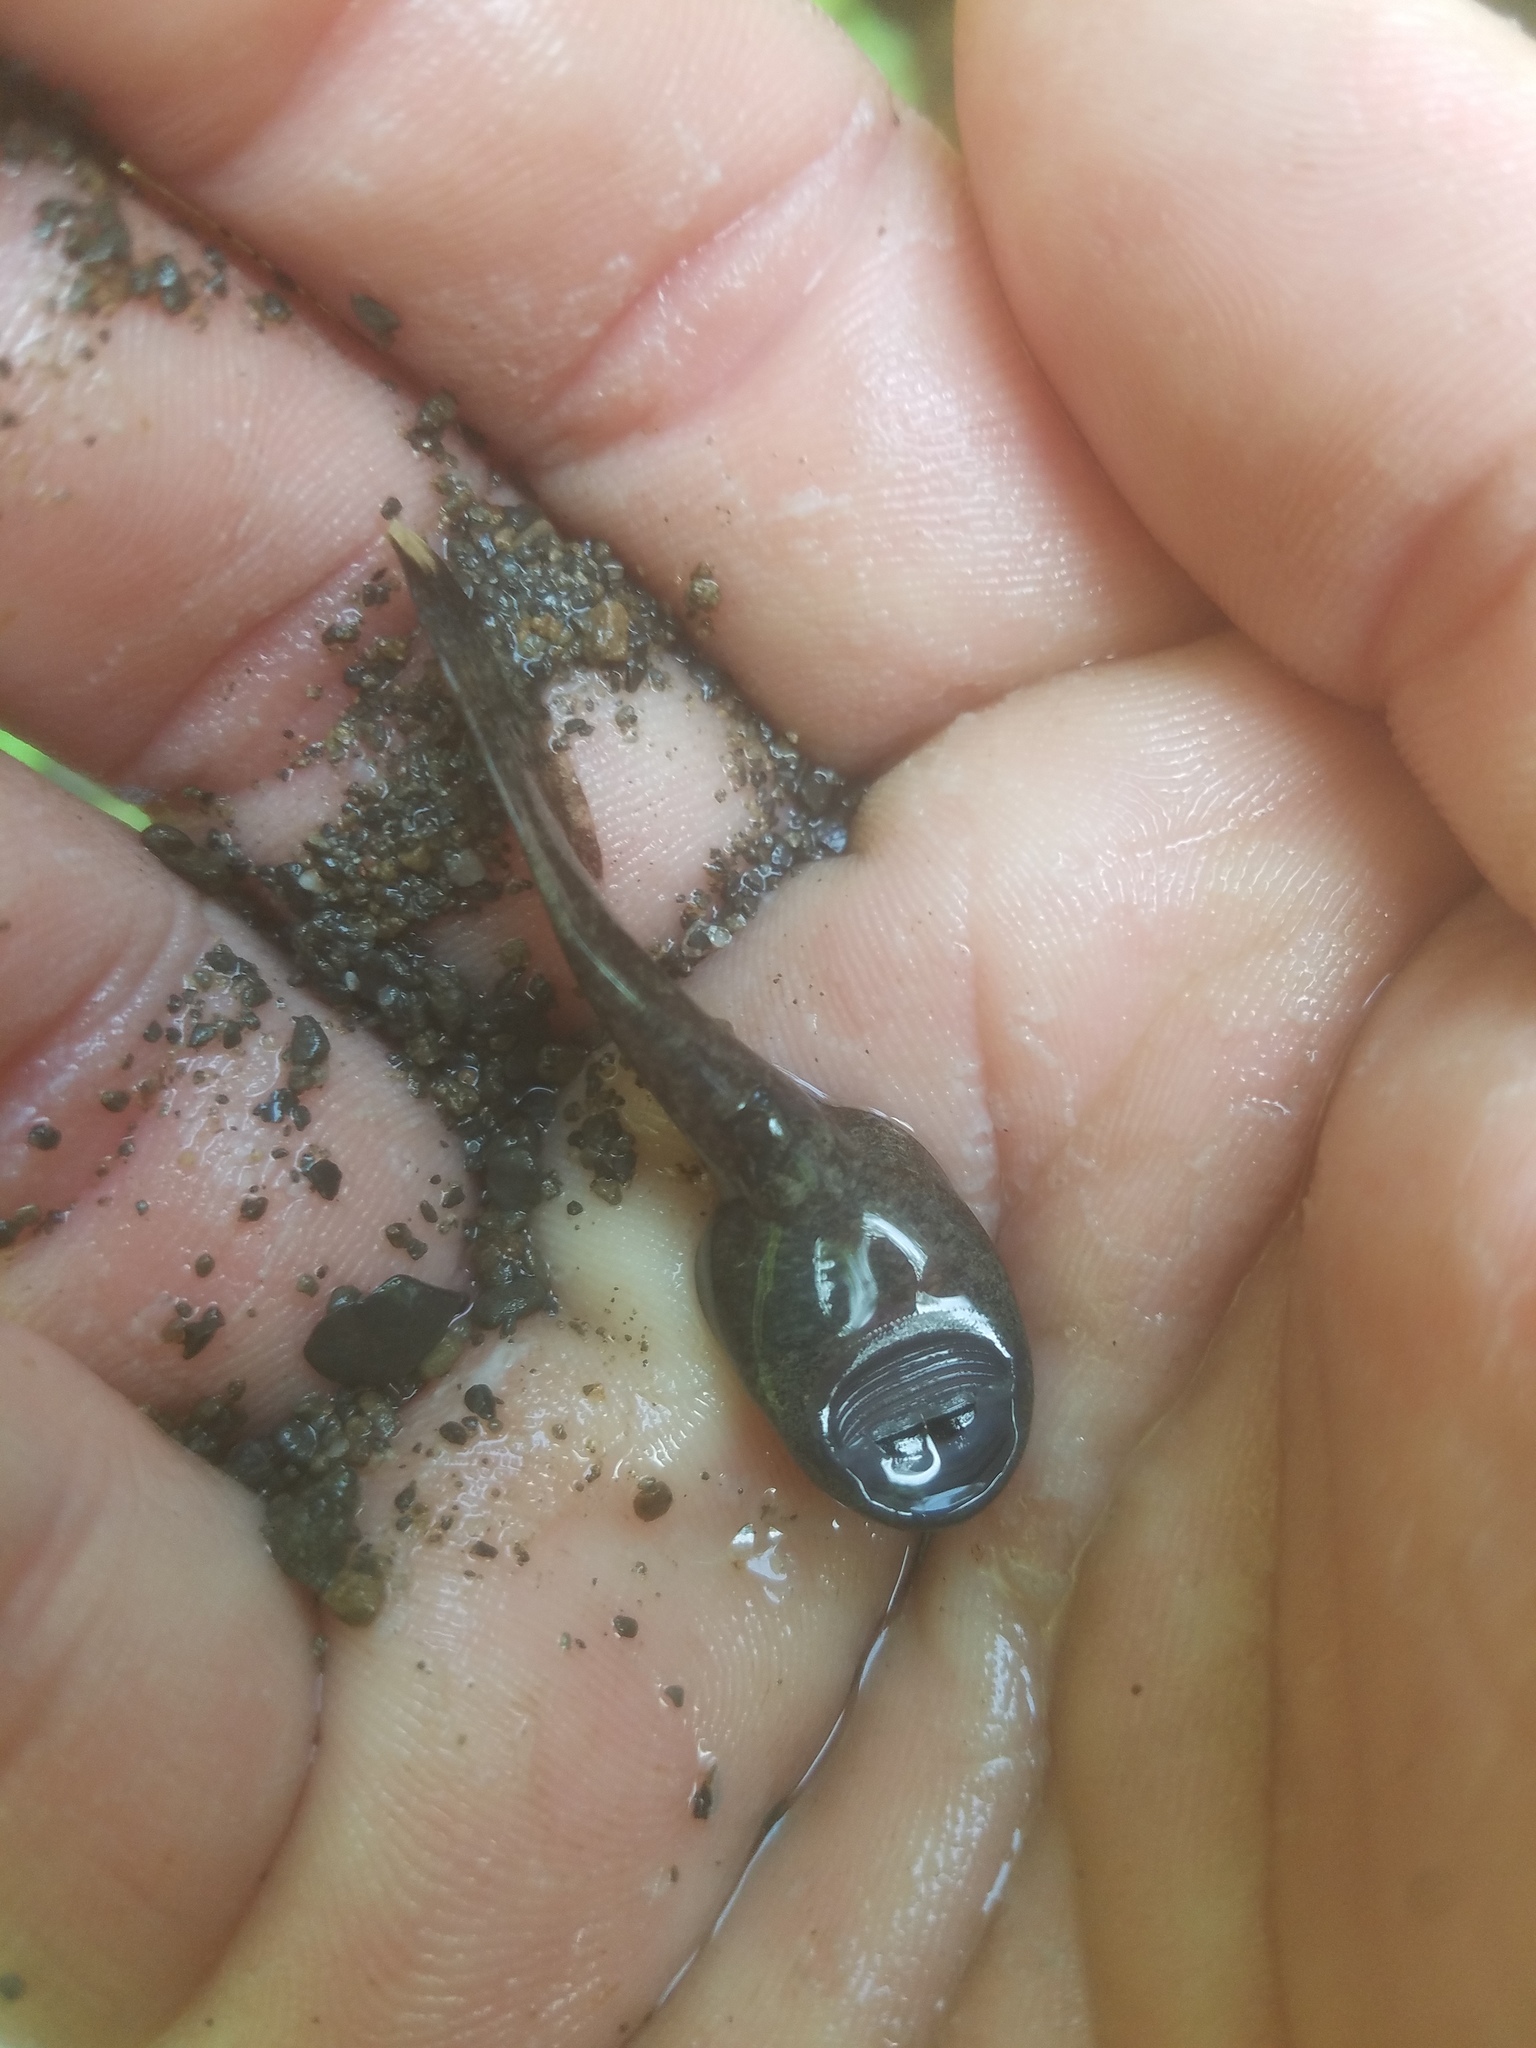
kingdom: Animalia
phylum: Chordata
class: Amphibia
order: Anura
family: Ascaphidae
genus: Ascaphus
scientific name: Ascaphus truei
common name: Tailed frog
